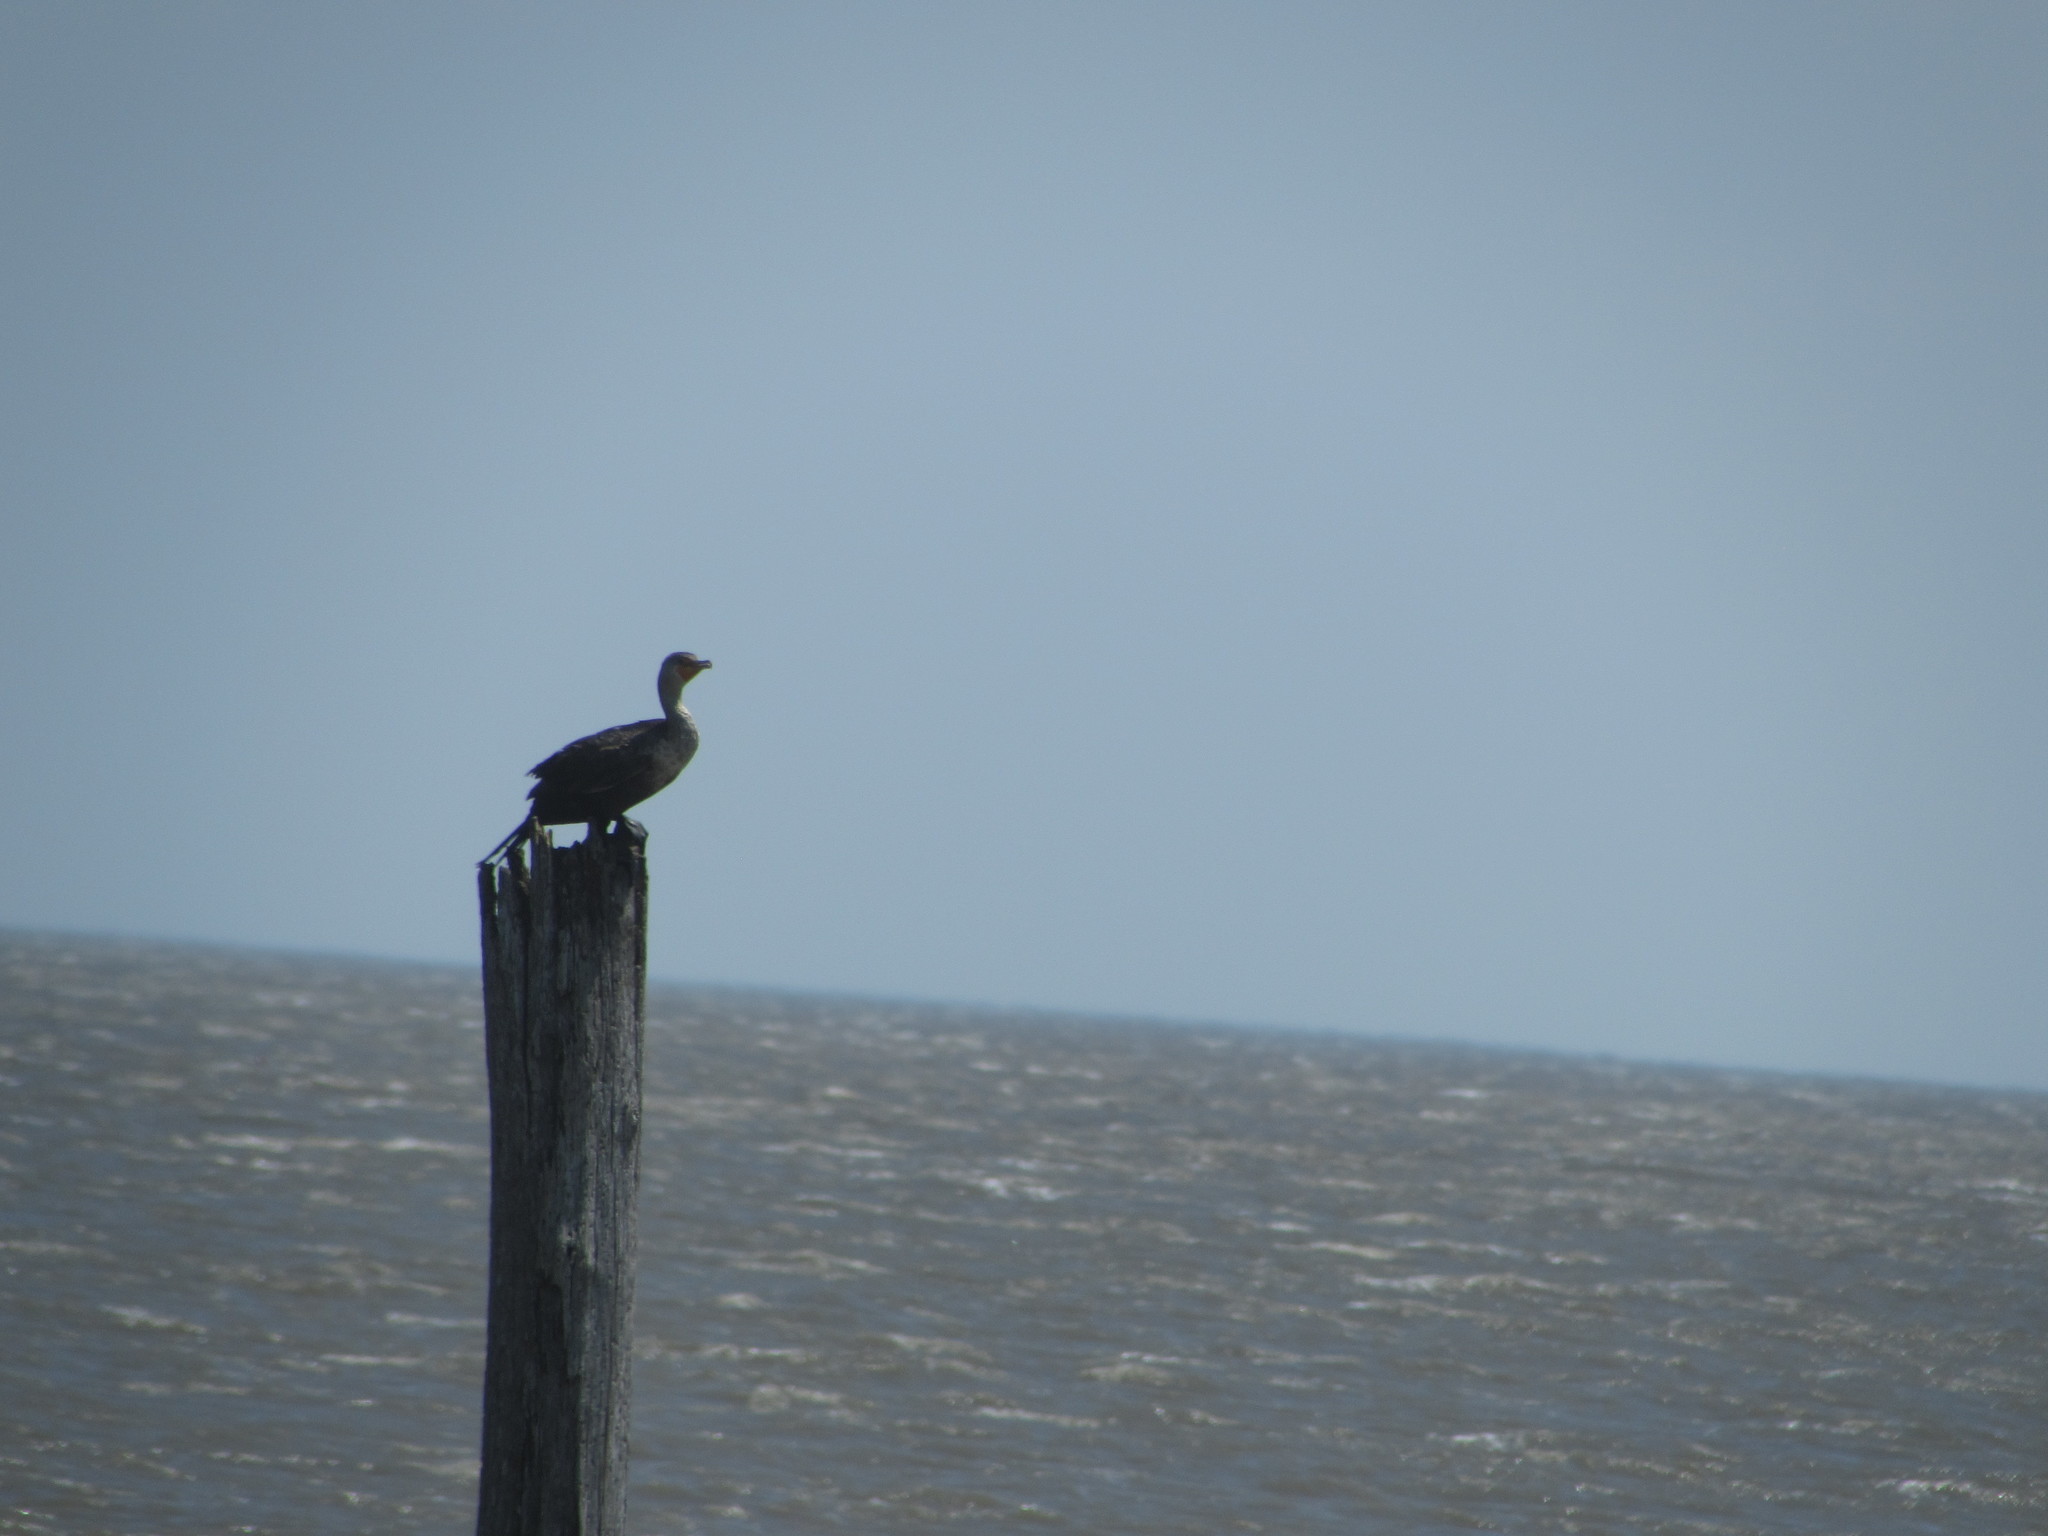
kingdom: Animalia
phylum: Chordata
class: Aves
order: Suliformes
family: Phalacrocoracidae
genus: Phalacrocorax
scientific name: Phalacrocorax auritus
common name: Double-crested cormorant
